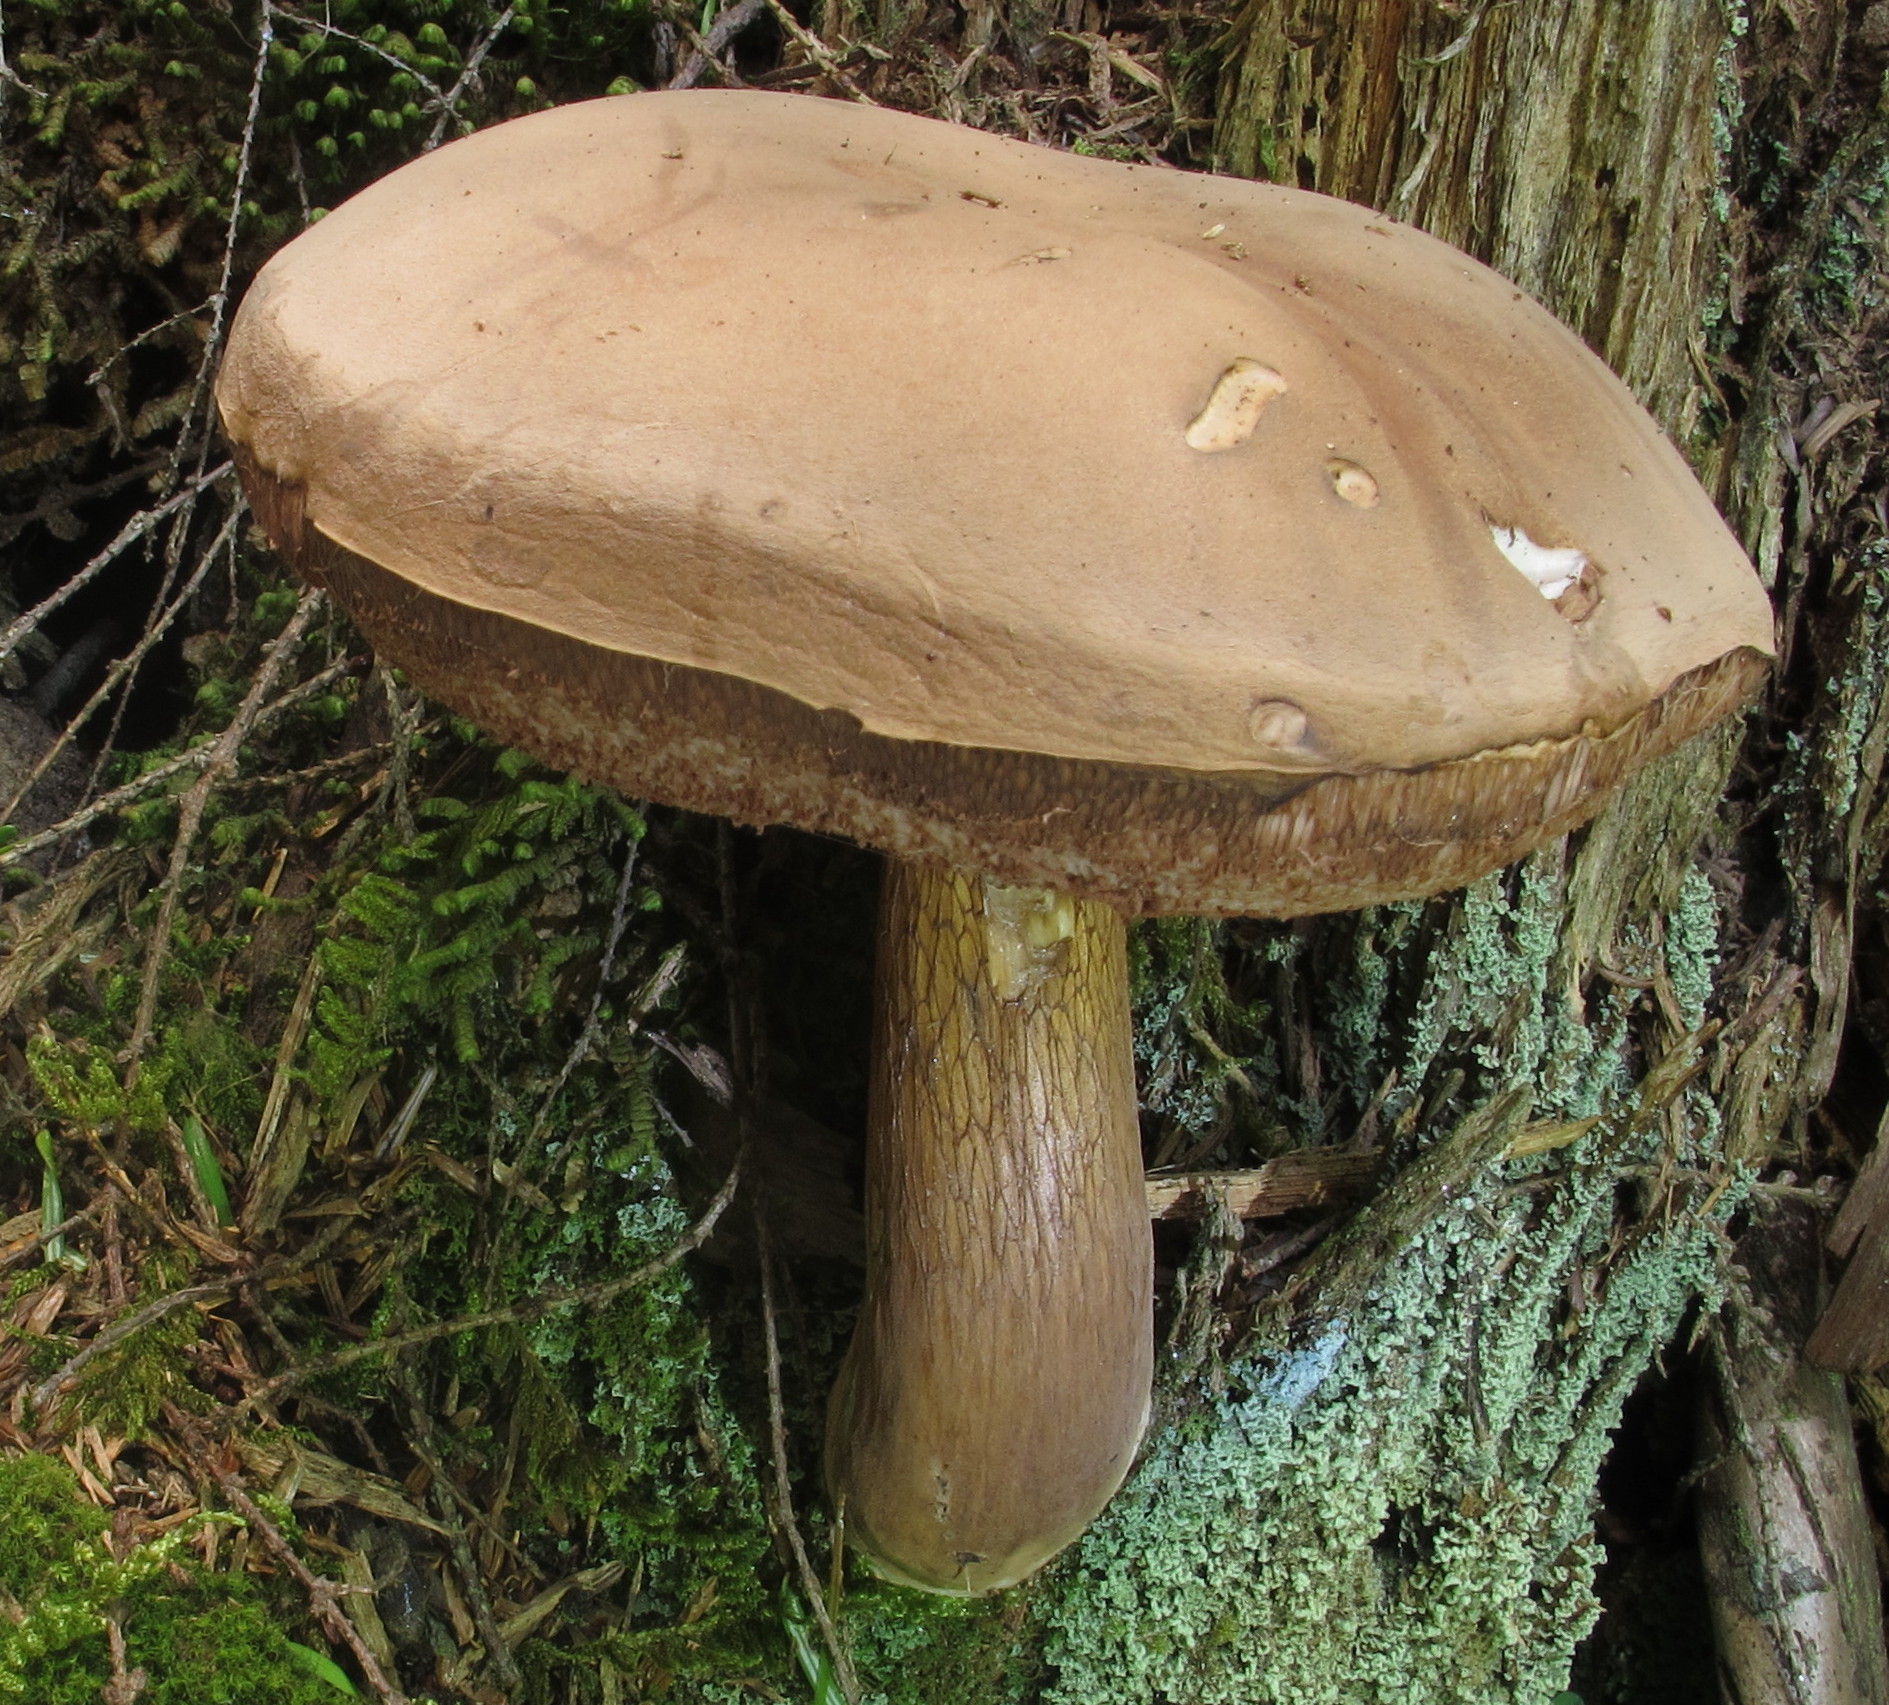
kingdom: Fungi
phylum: Basidiomycota
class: Agaricomycetes
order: Boletales
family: Boletaceae
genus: Tylopilus
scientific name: Tylopilus felleus
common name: Bitter bolete
